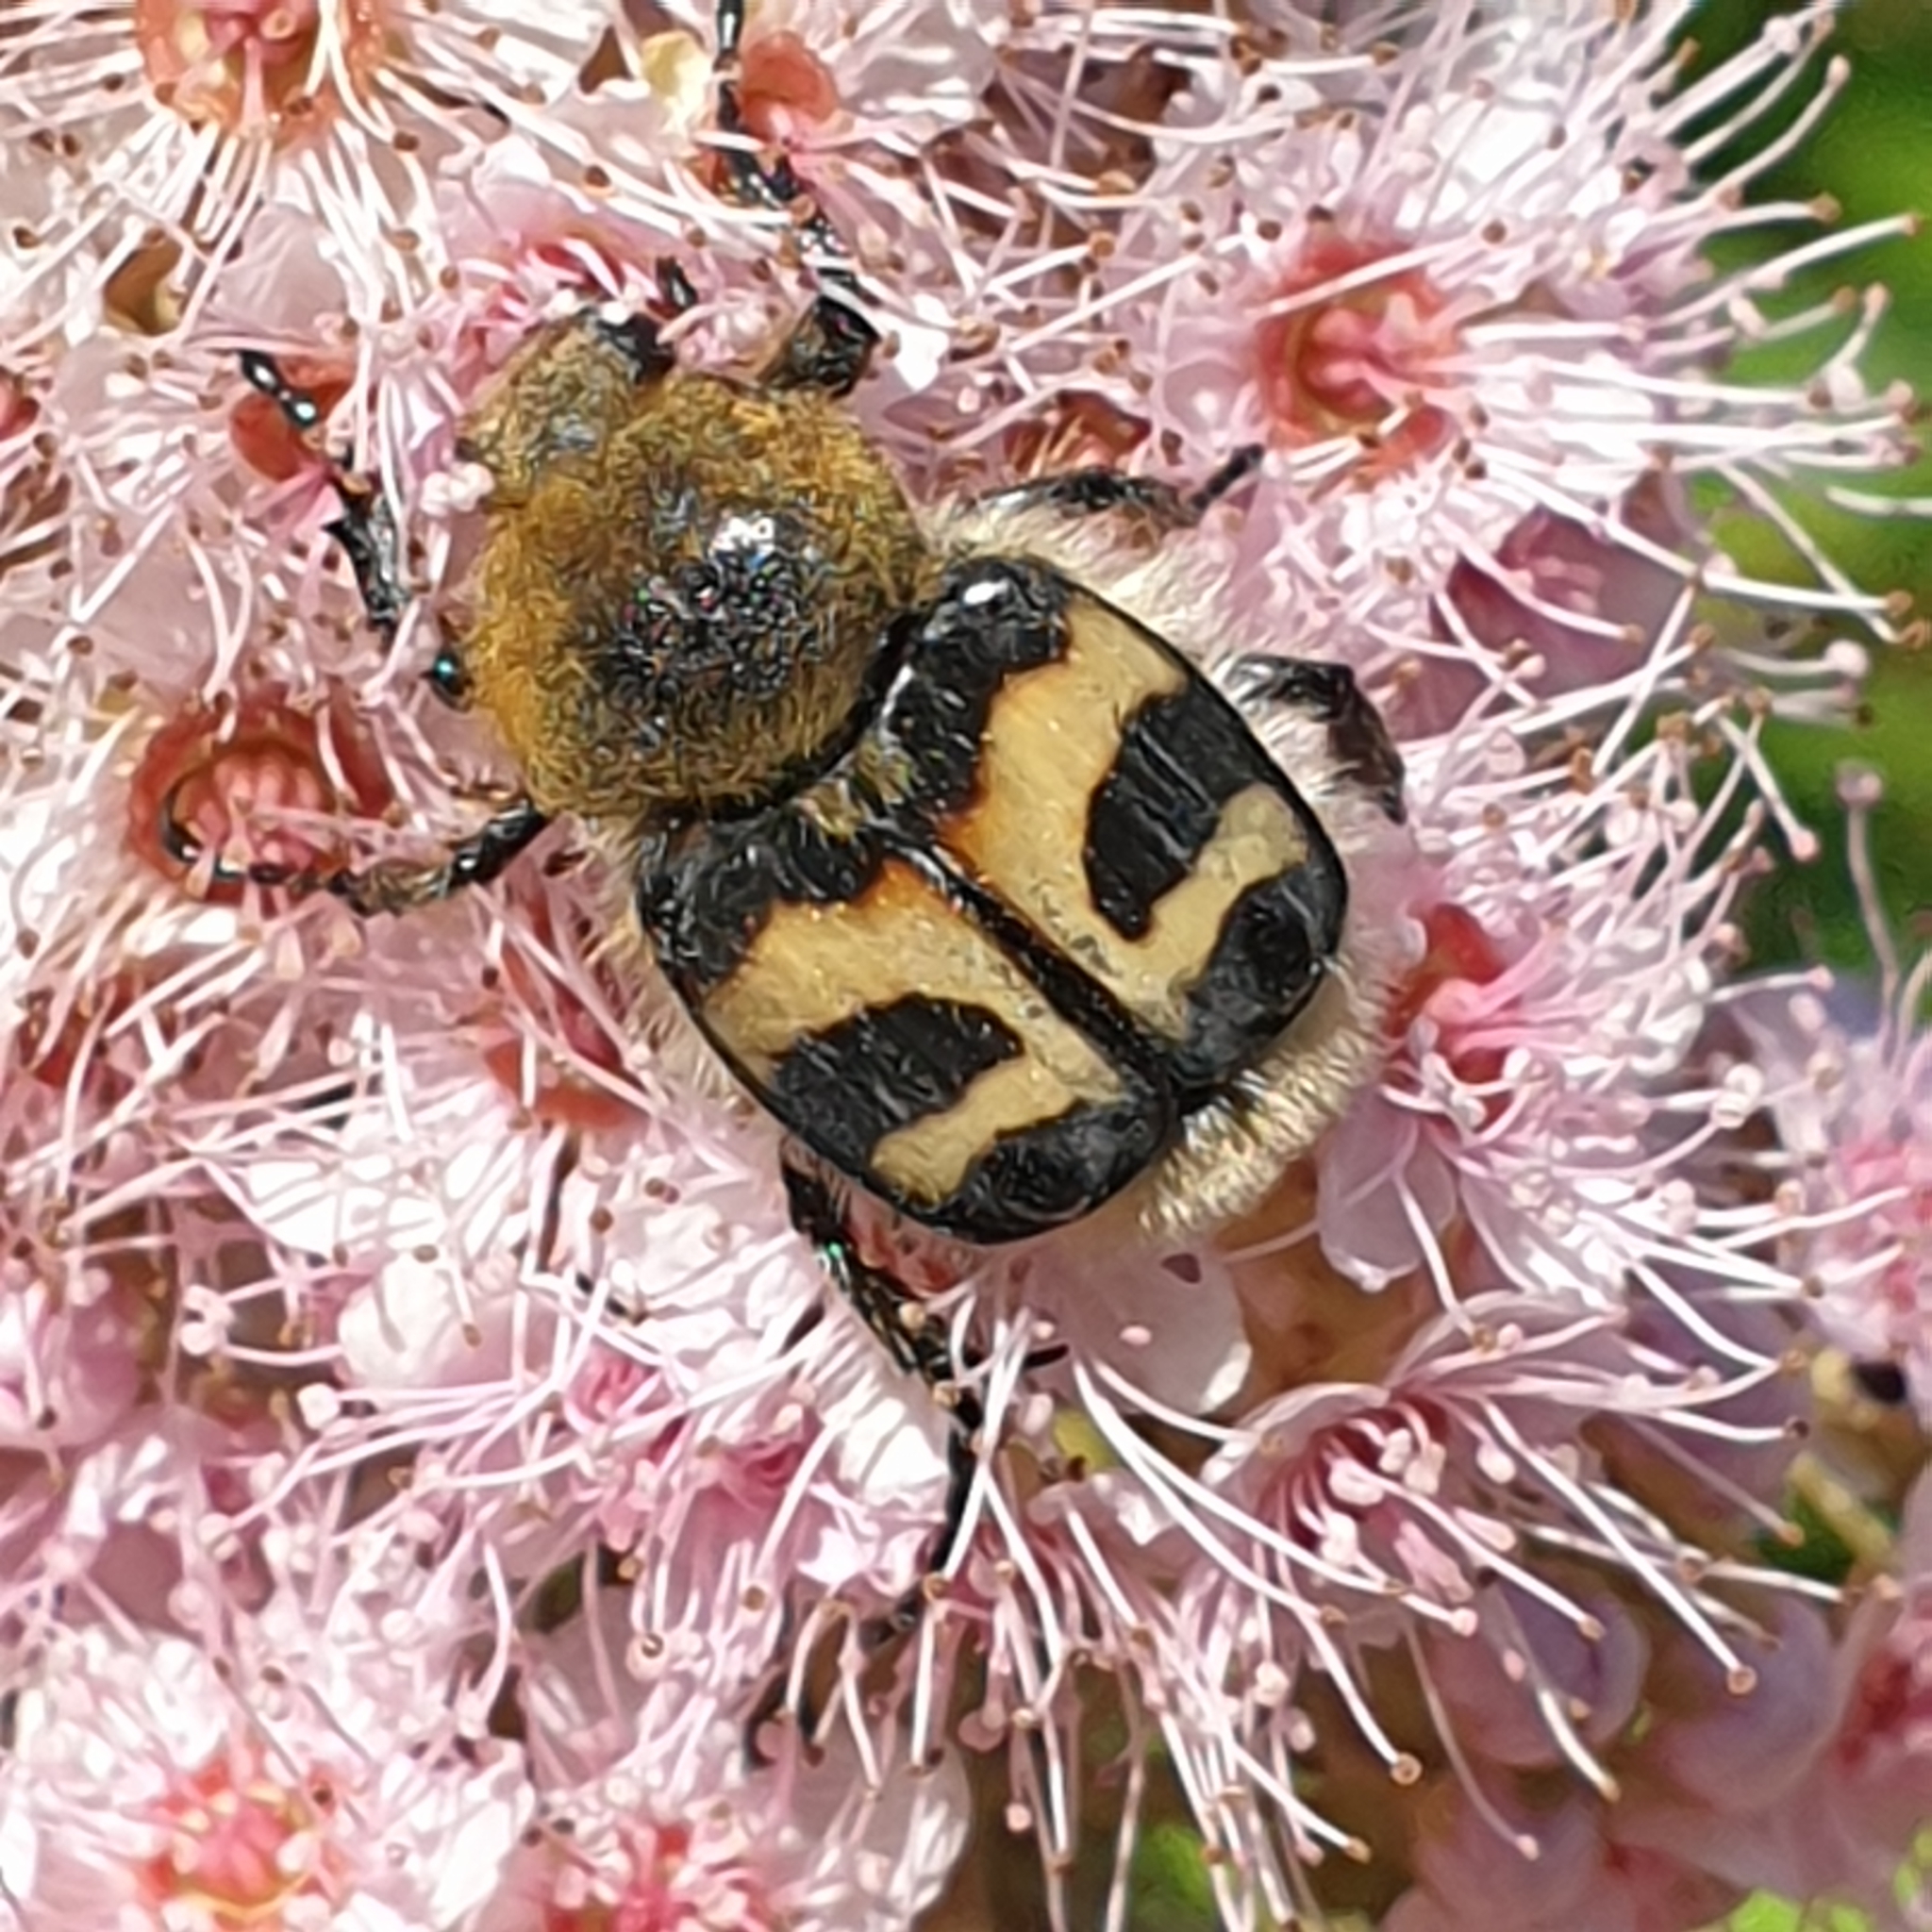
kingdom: Animalia
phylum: Arthropoda
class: Insecta
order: Coleoptera
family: Scarabaeidae
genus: Trichius
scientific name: Trichius fasciatus
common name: Bee beetle
